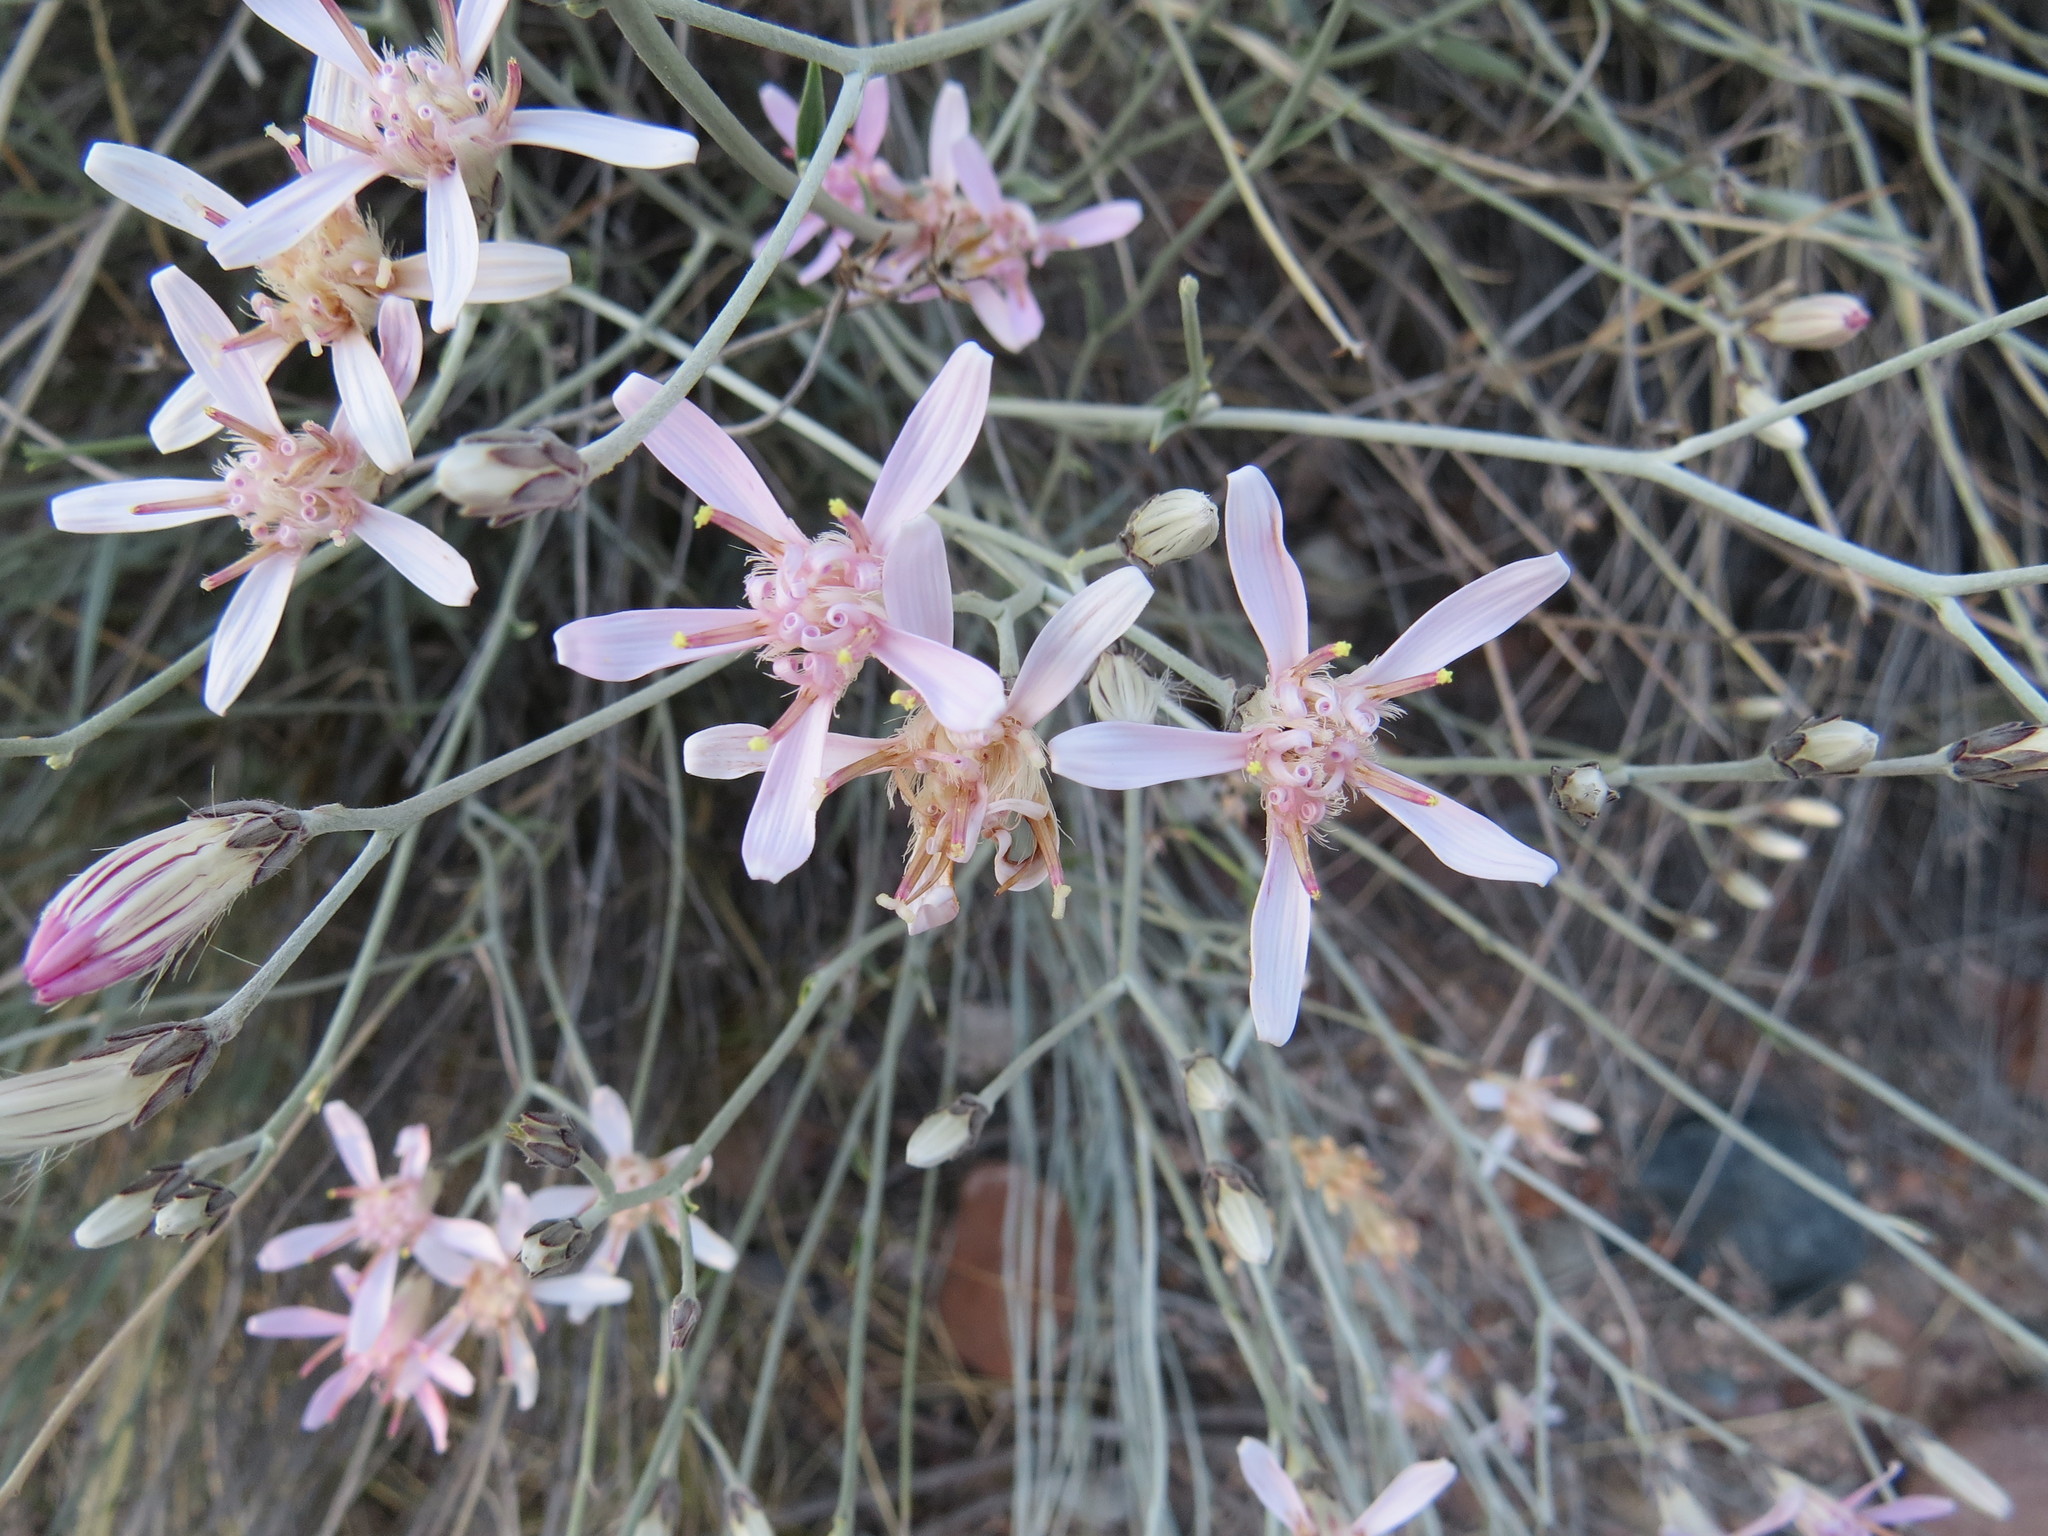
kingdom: Plantae
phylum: Tracheophyta
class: Magnoliopsida
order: Asterales
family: Asteraceae
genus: Hyalis
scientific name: Hyalis argentea
